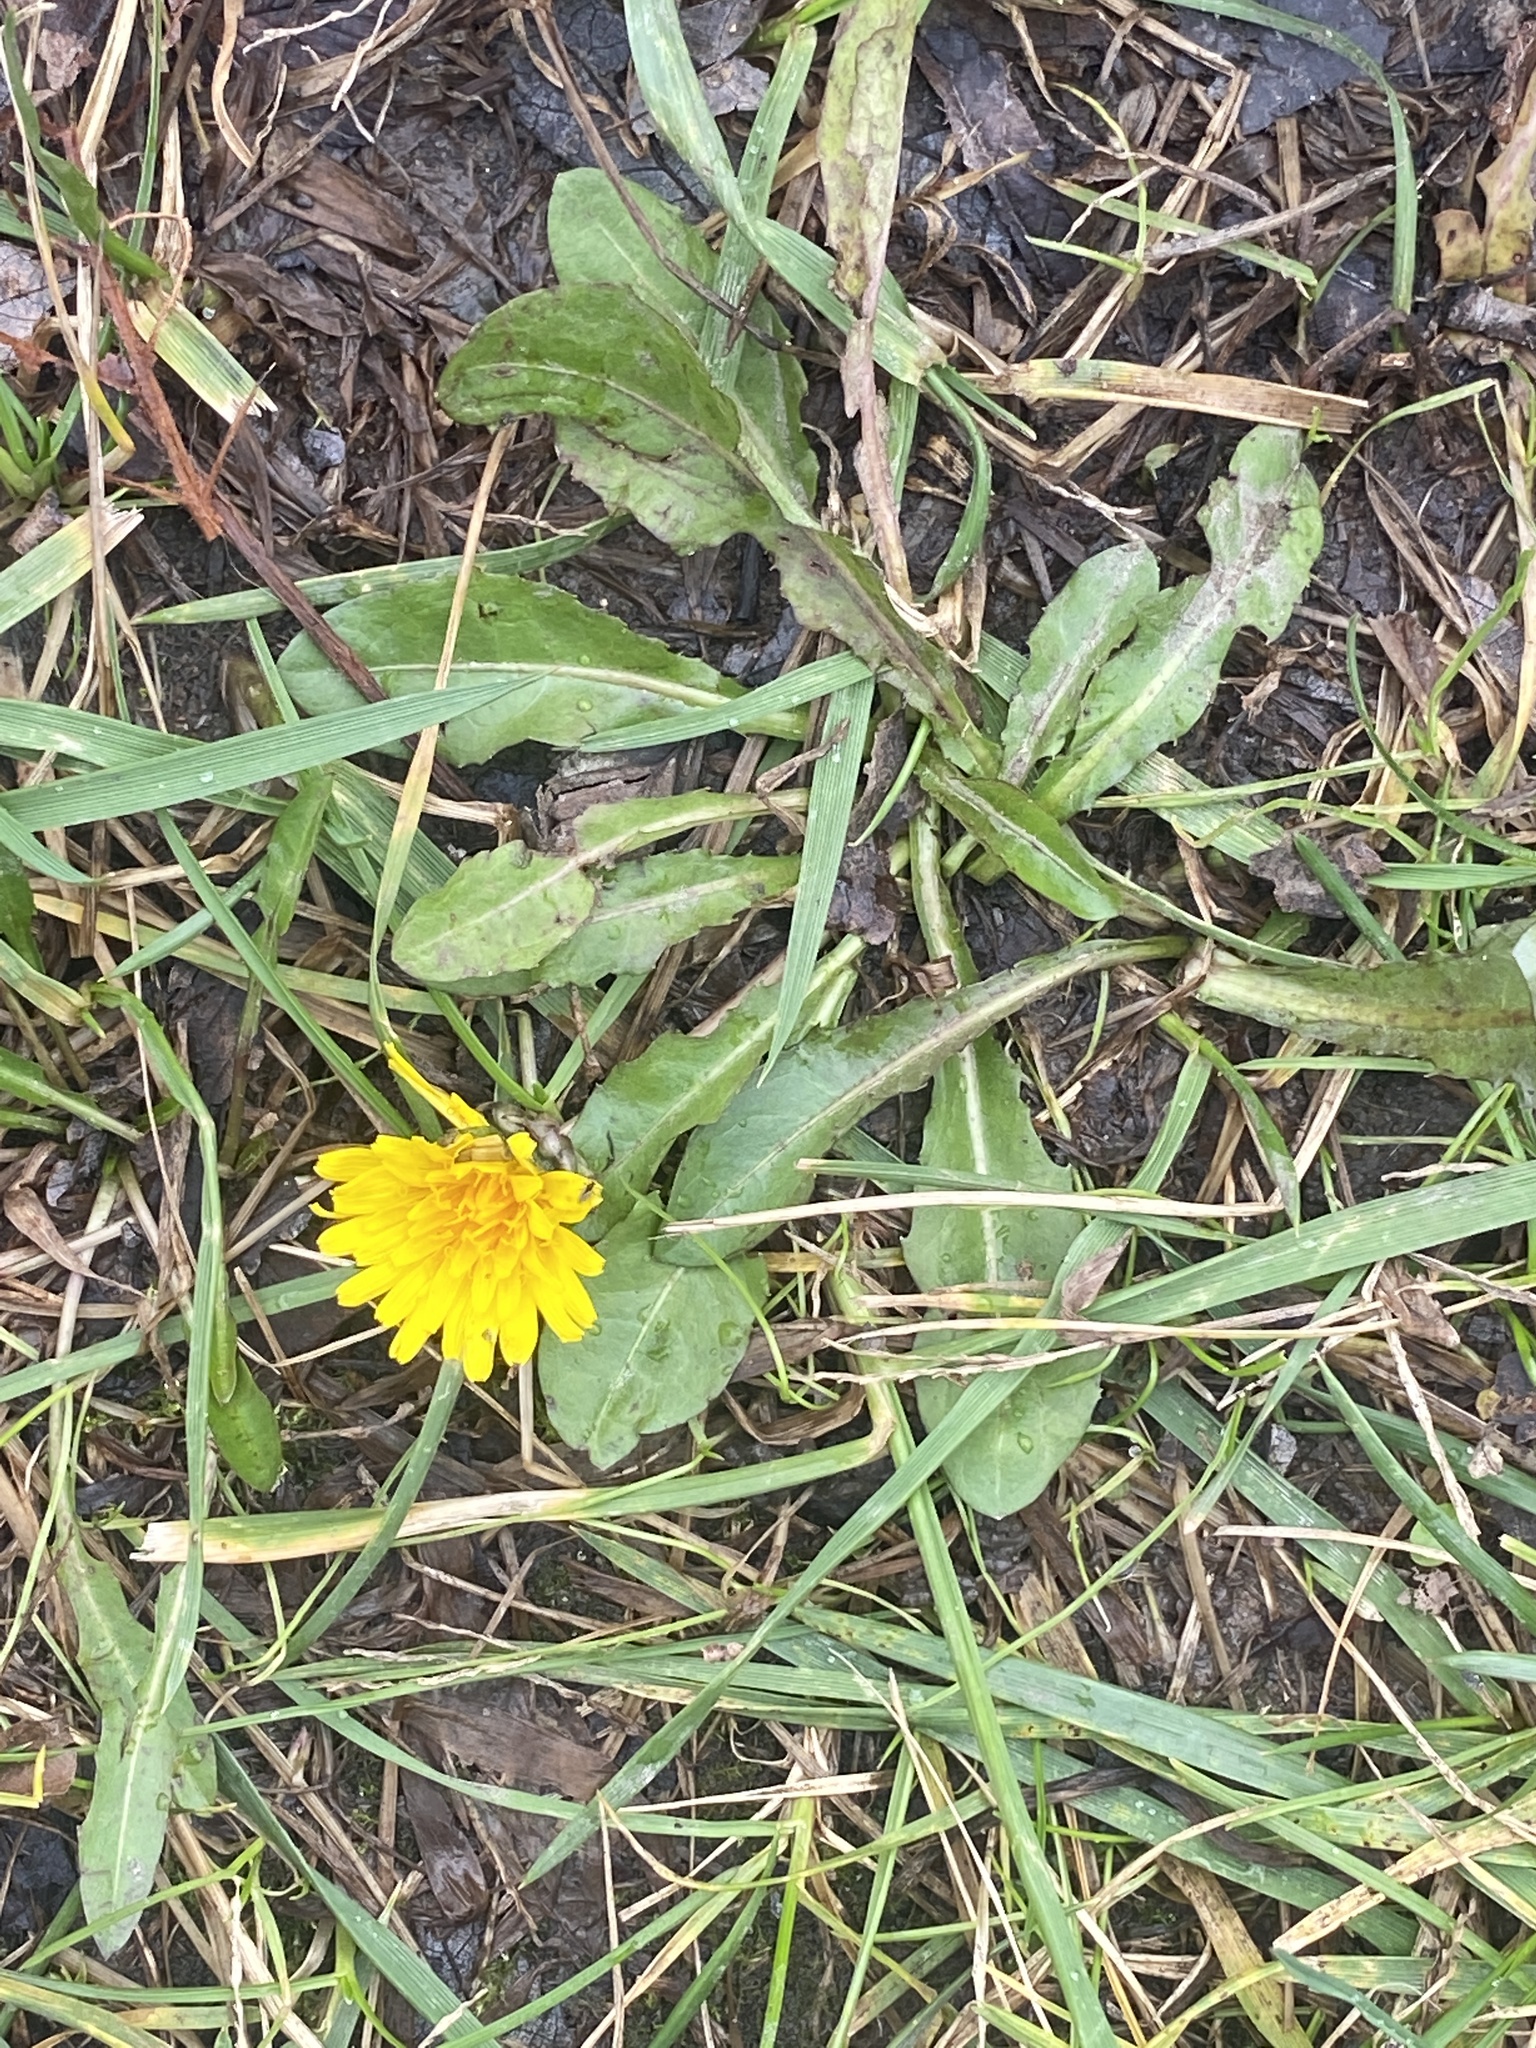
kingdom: Plantae
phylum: Tracheophyta
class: Magnoliopsida
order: Asterales
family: Asteraceae
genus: Taraxacum
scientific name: Taraxacum officinale
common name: Common dandelion
